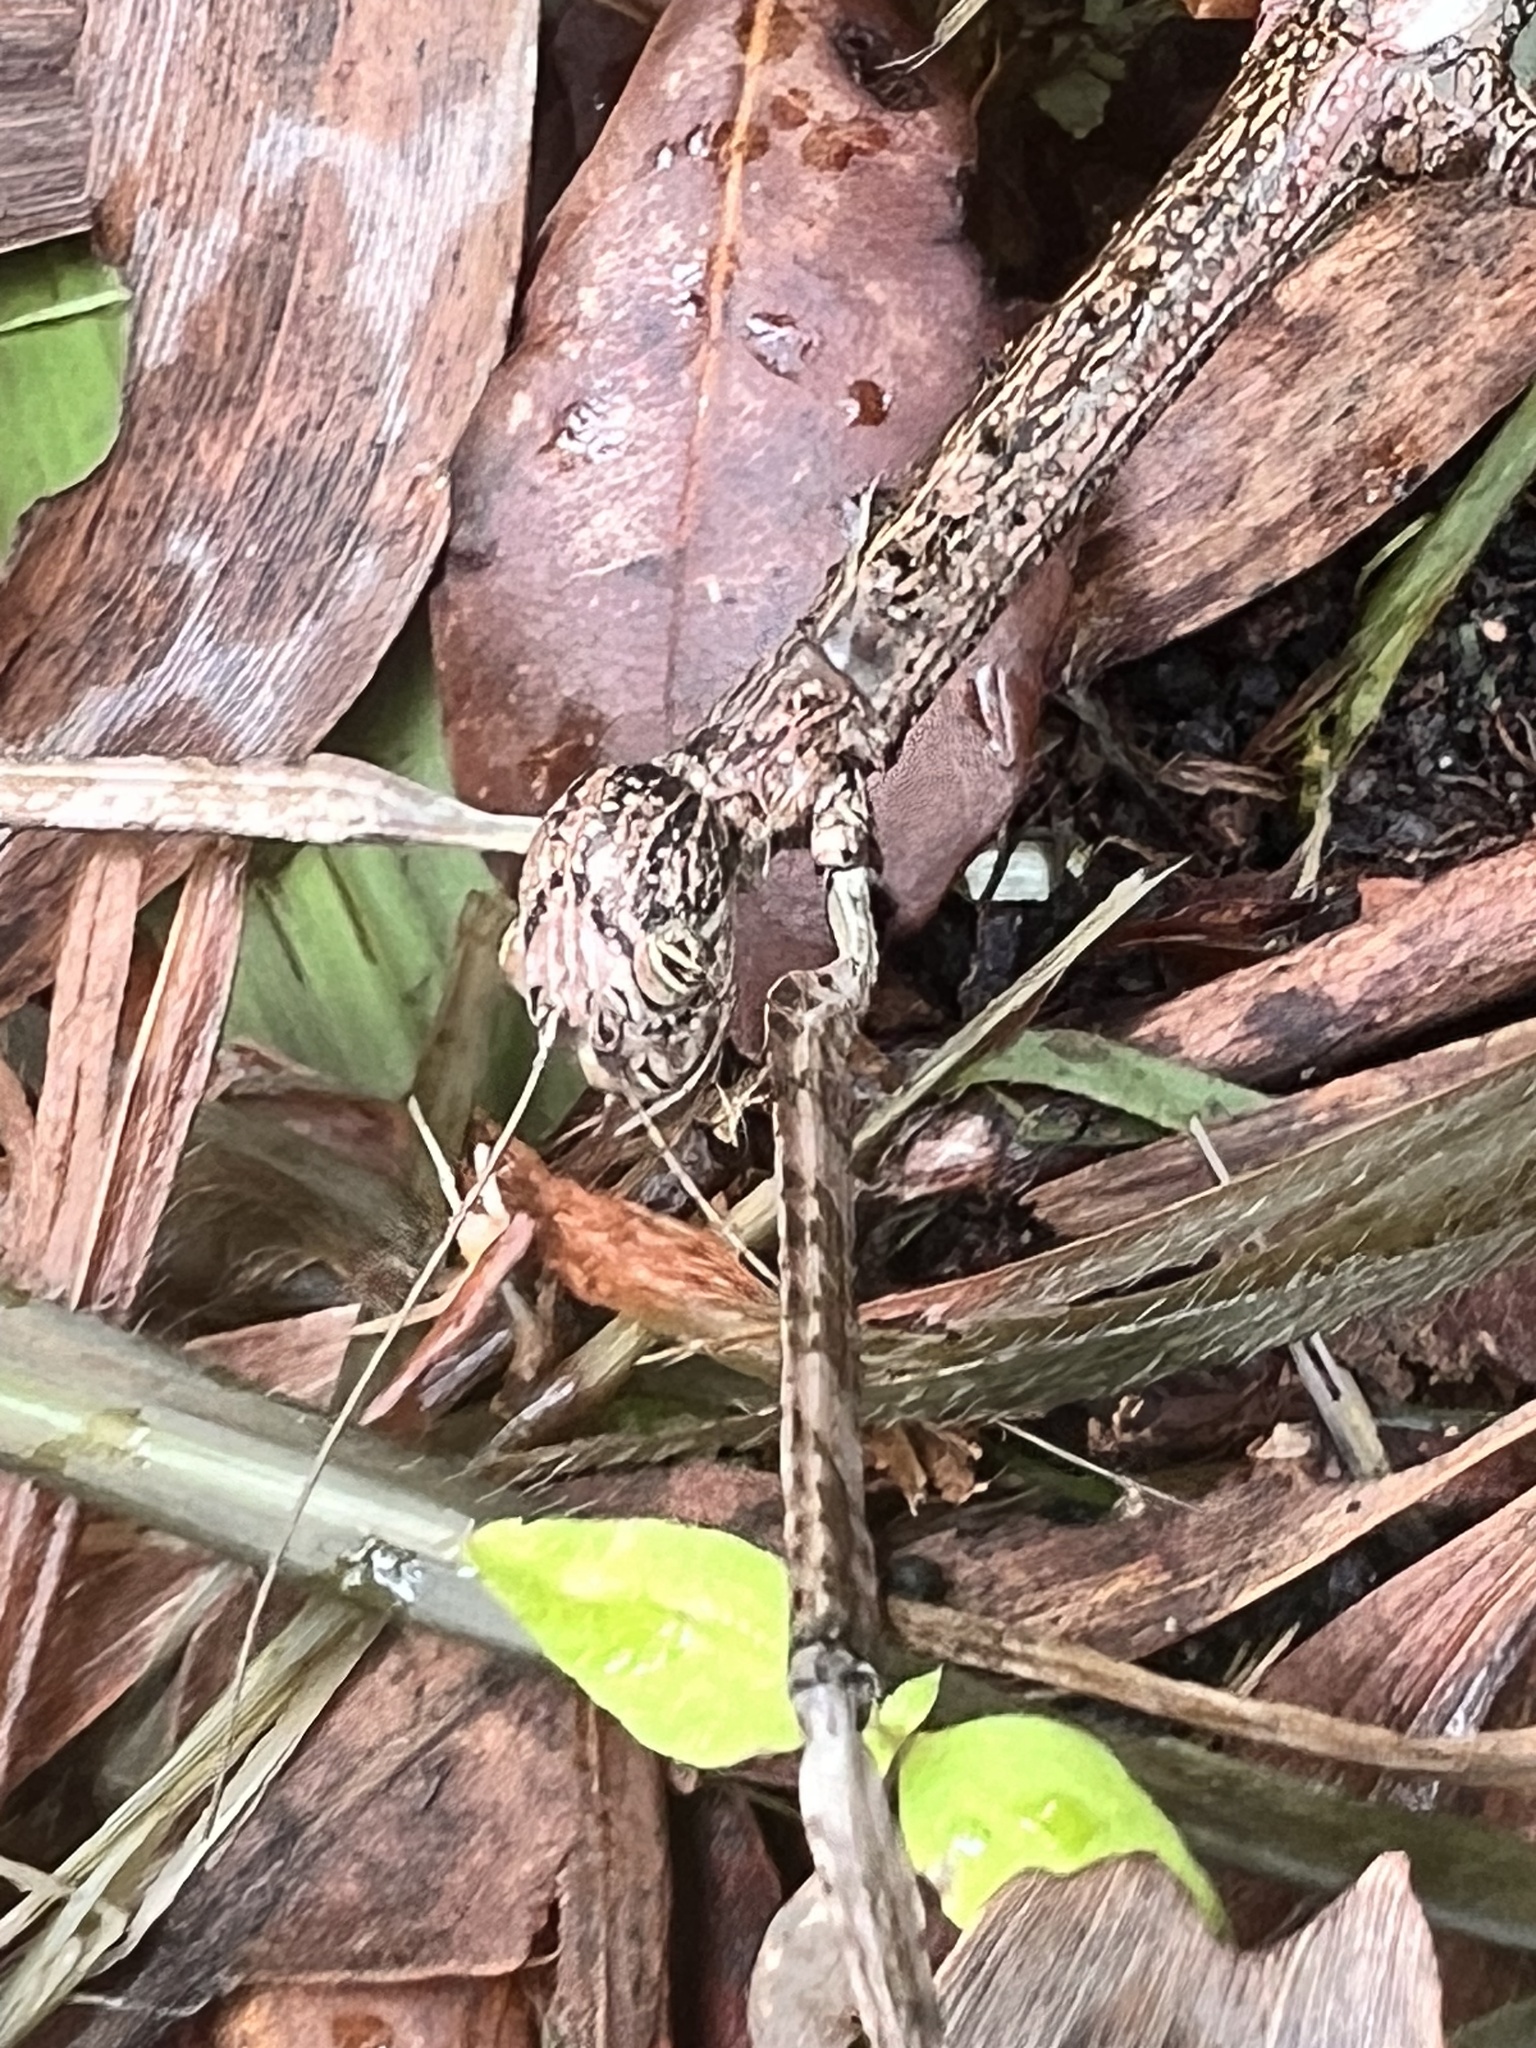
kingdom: Animalia
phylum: Arthropoda
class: Insecta
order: Phasmida
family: Phasmatidae
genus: Anchiale
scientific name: Anchiale briareus
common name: Strong stick insect
